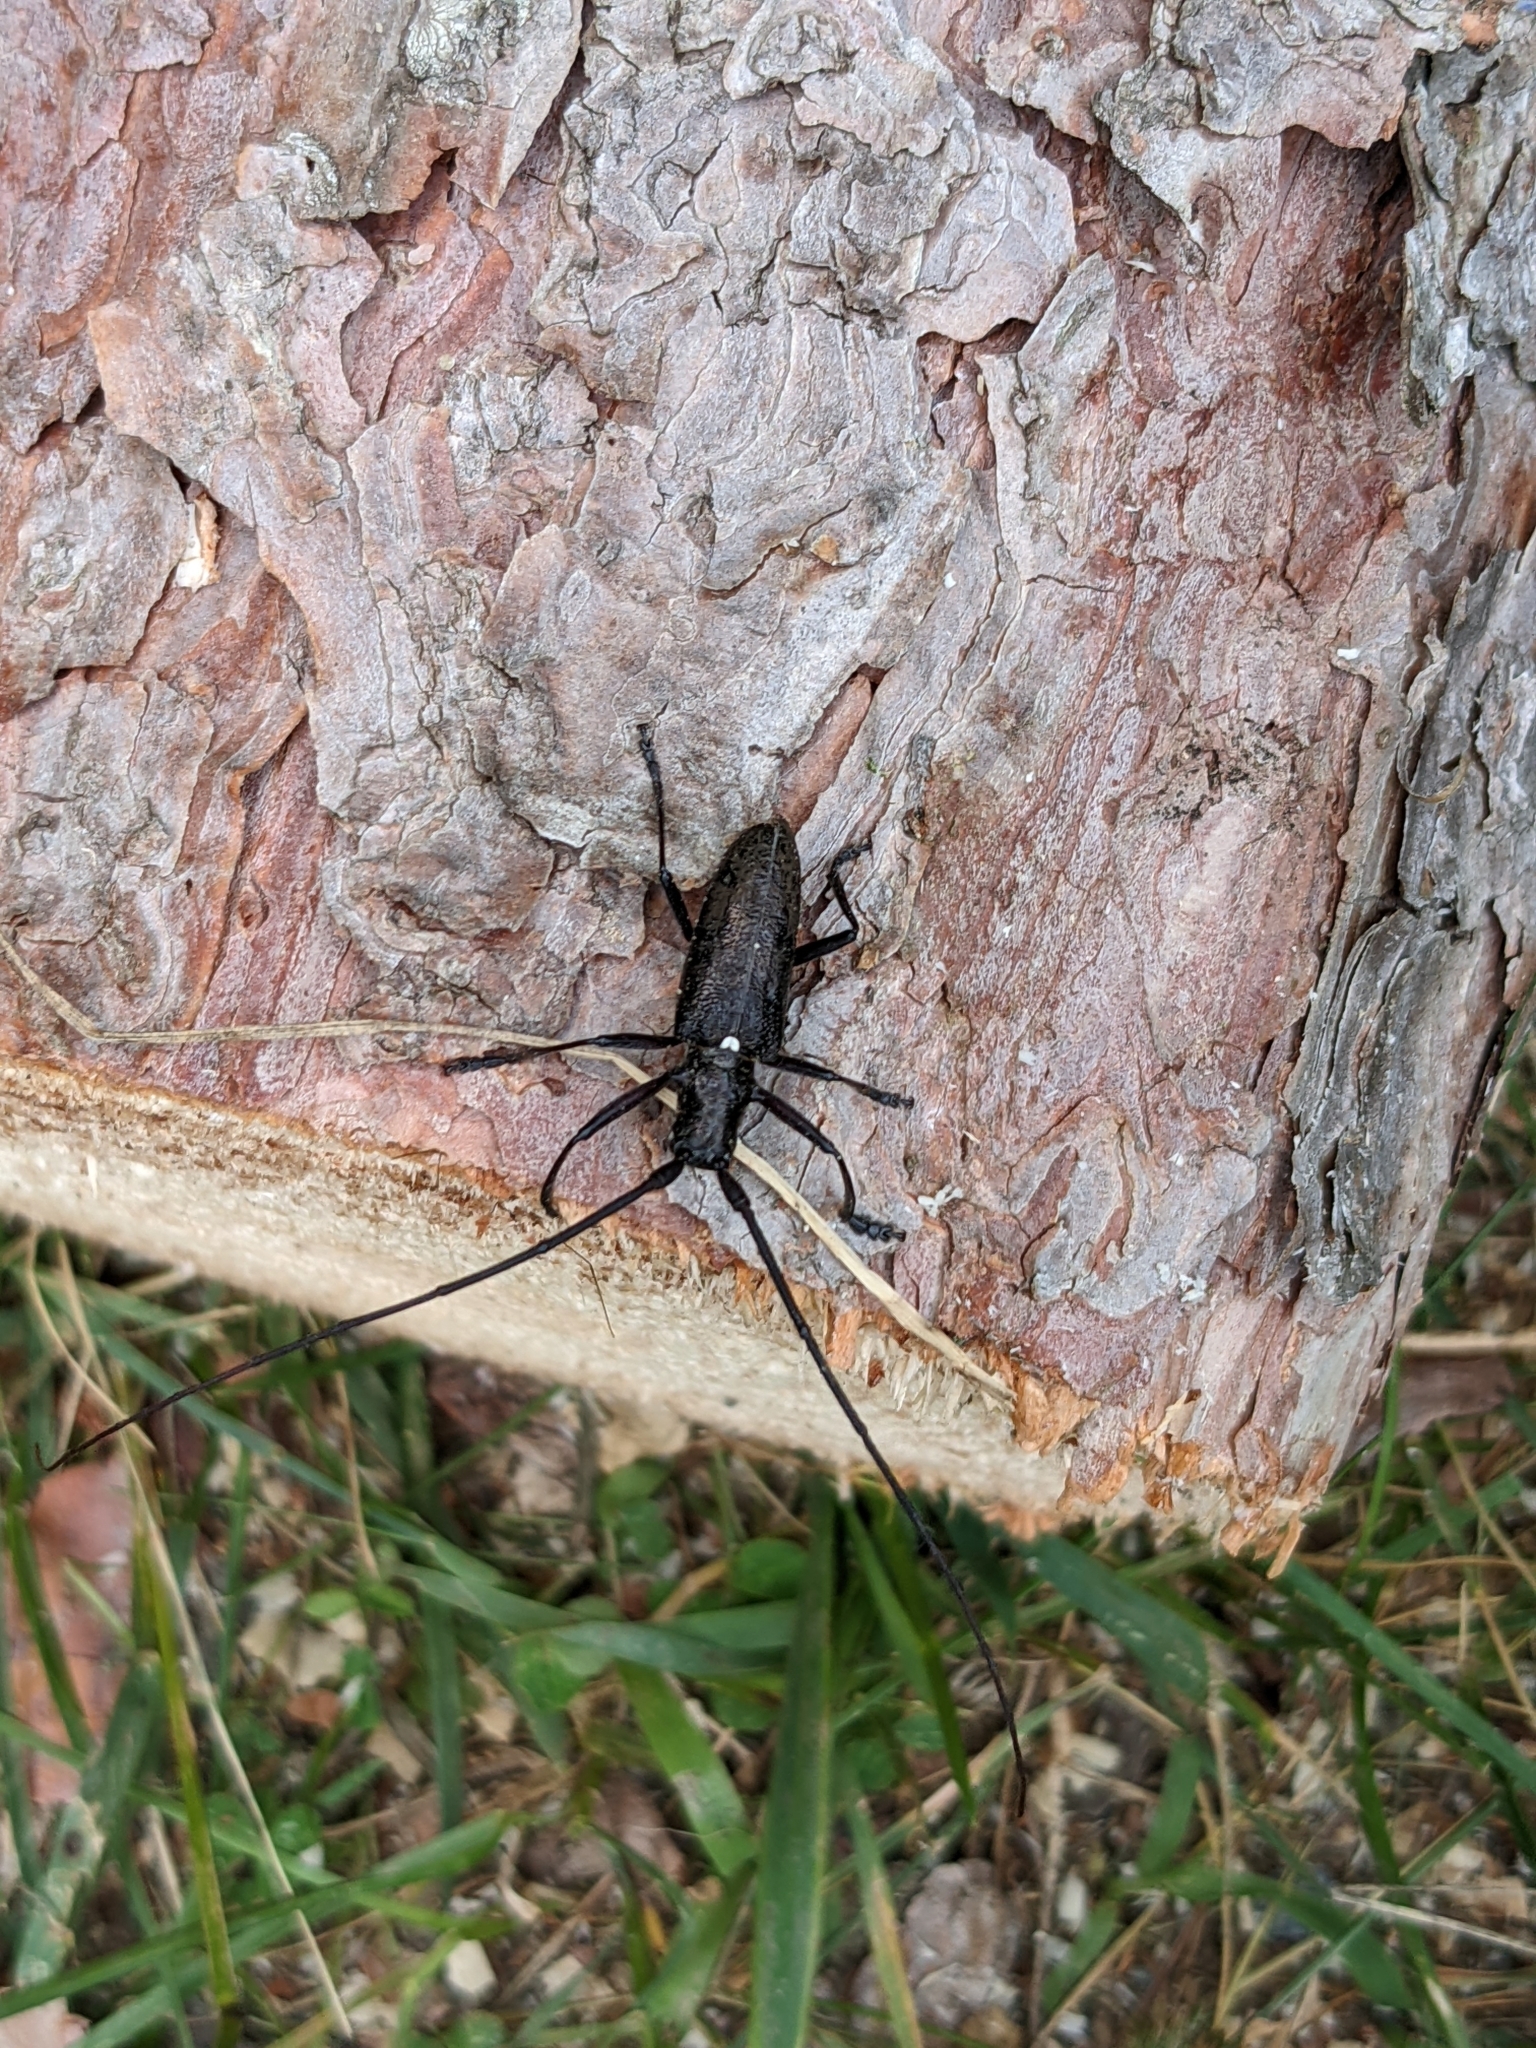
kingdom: Animalia
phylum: Arthropoda
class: Insecta
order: Coleoptera
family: Cerambycidae
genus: Monochamus
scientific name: Monochamus scutellatus
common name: White-spotted sawyer beetle
